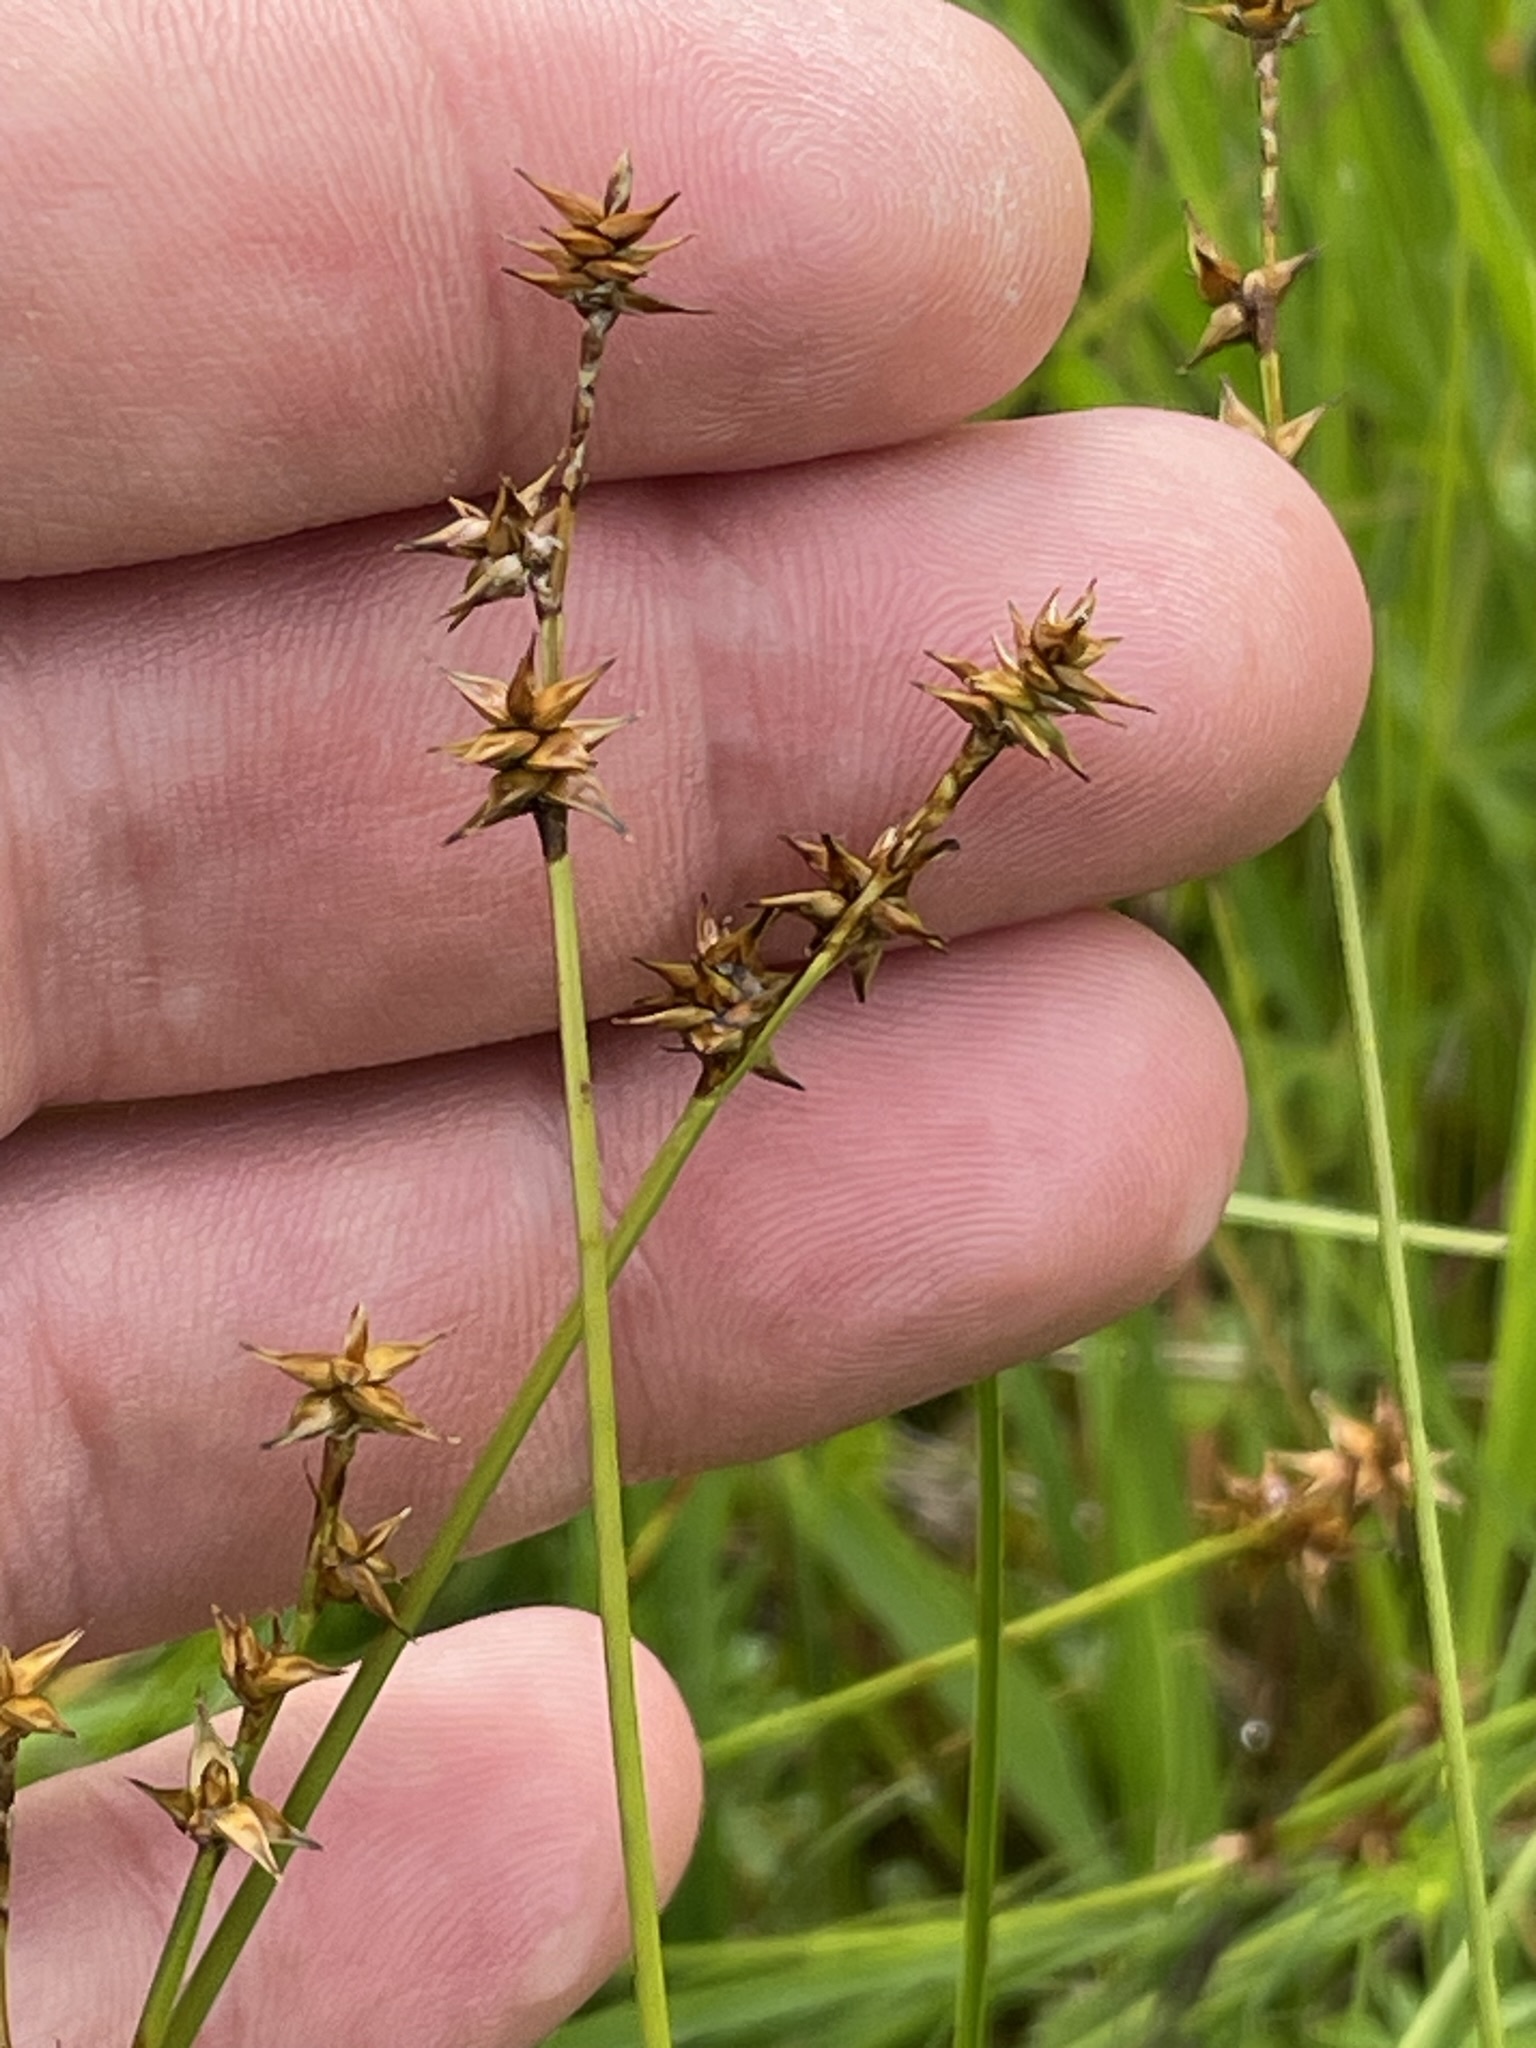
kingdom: Plantae
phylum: Tracheophyta
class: Liliopsida
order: Poales
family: Cyperaceae
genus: Carex
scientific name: Carex echinata
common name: Star sedge
